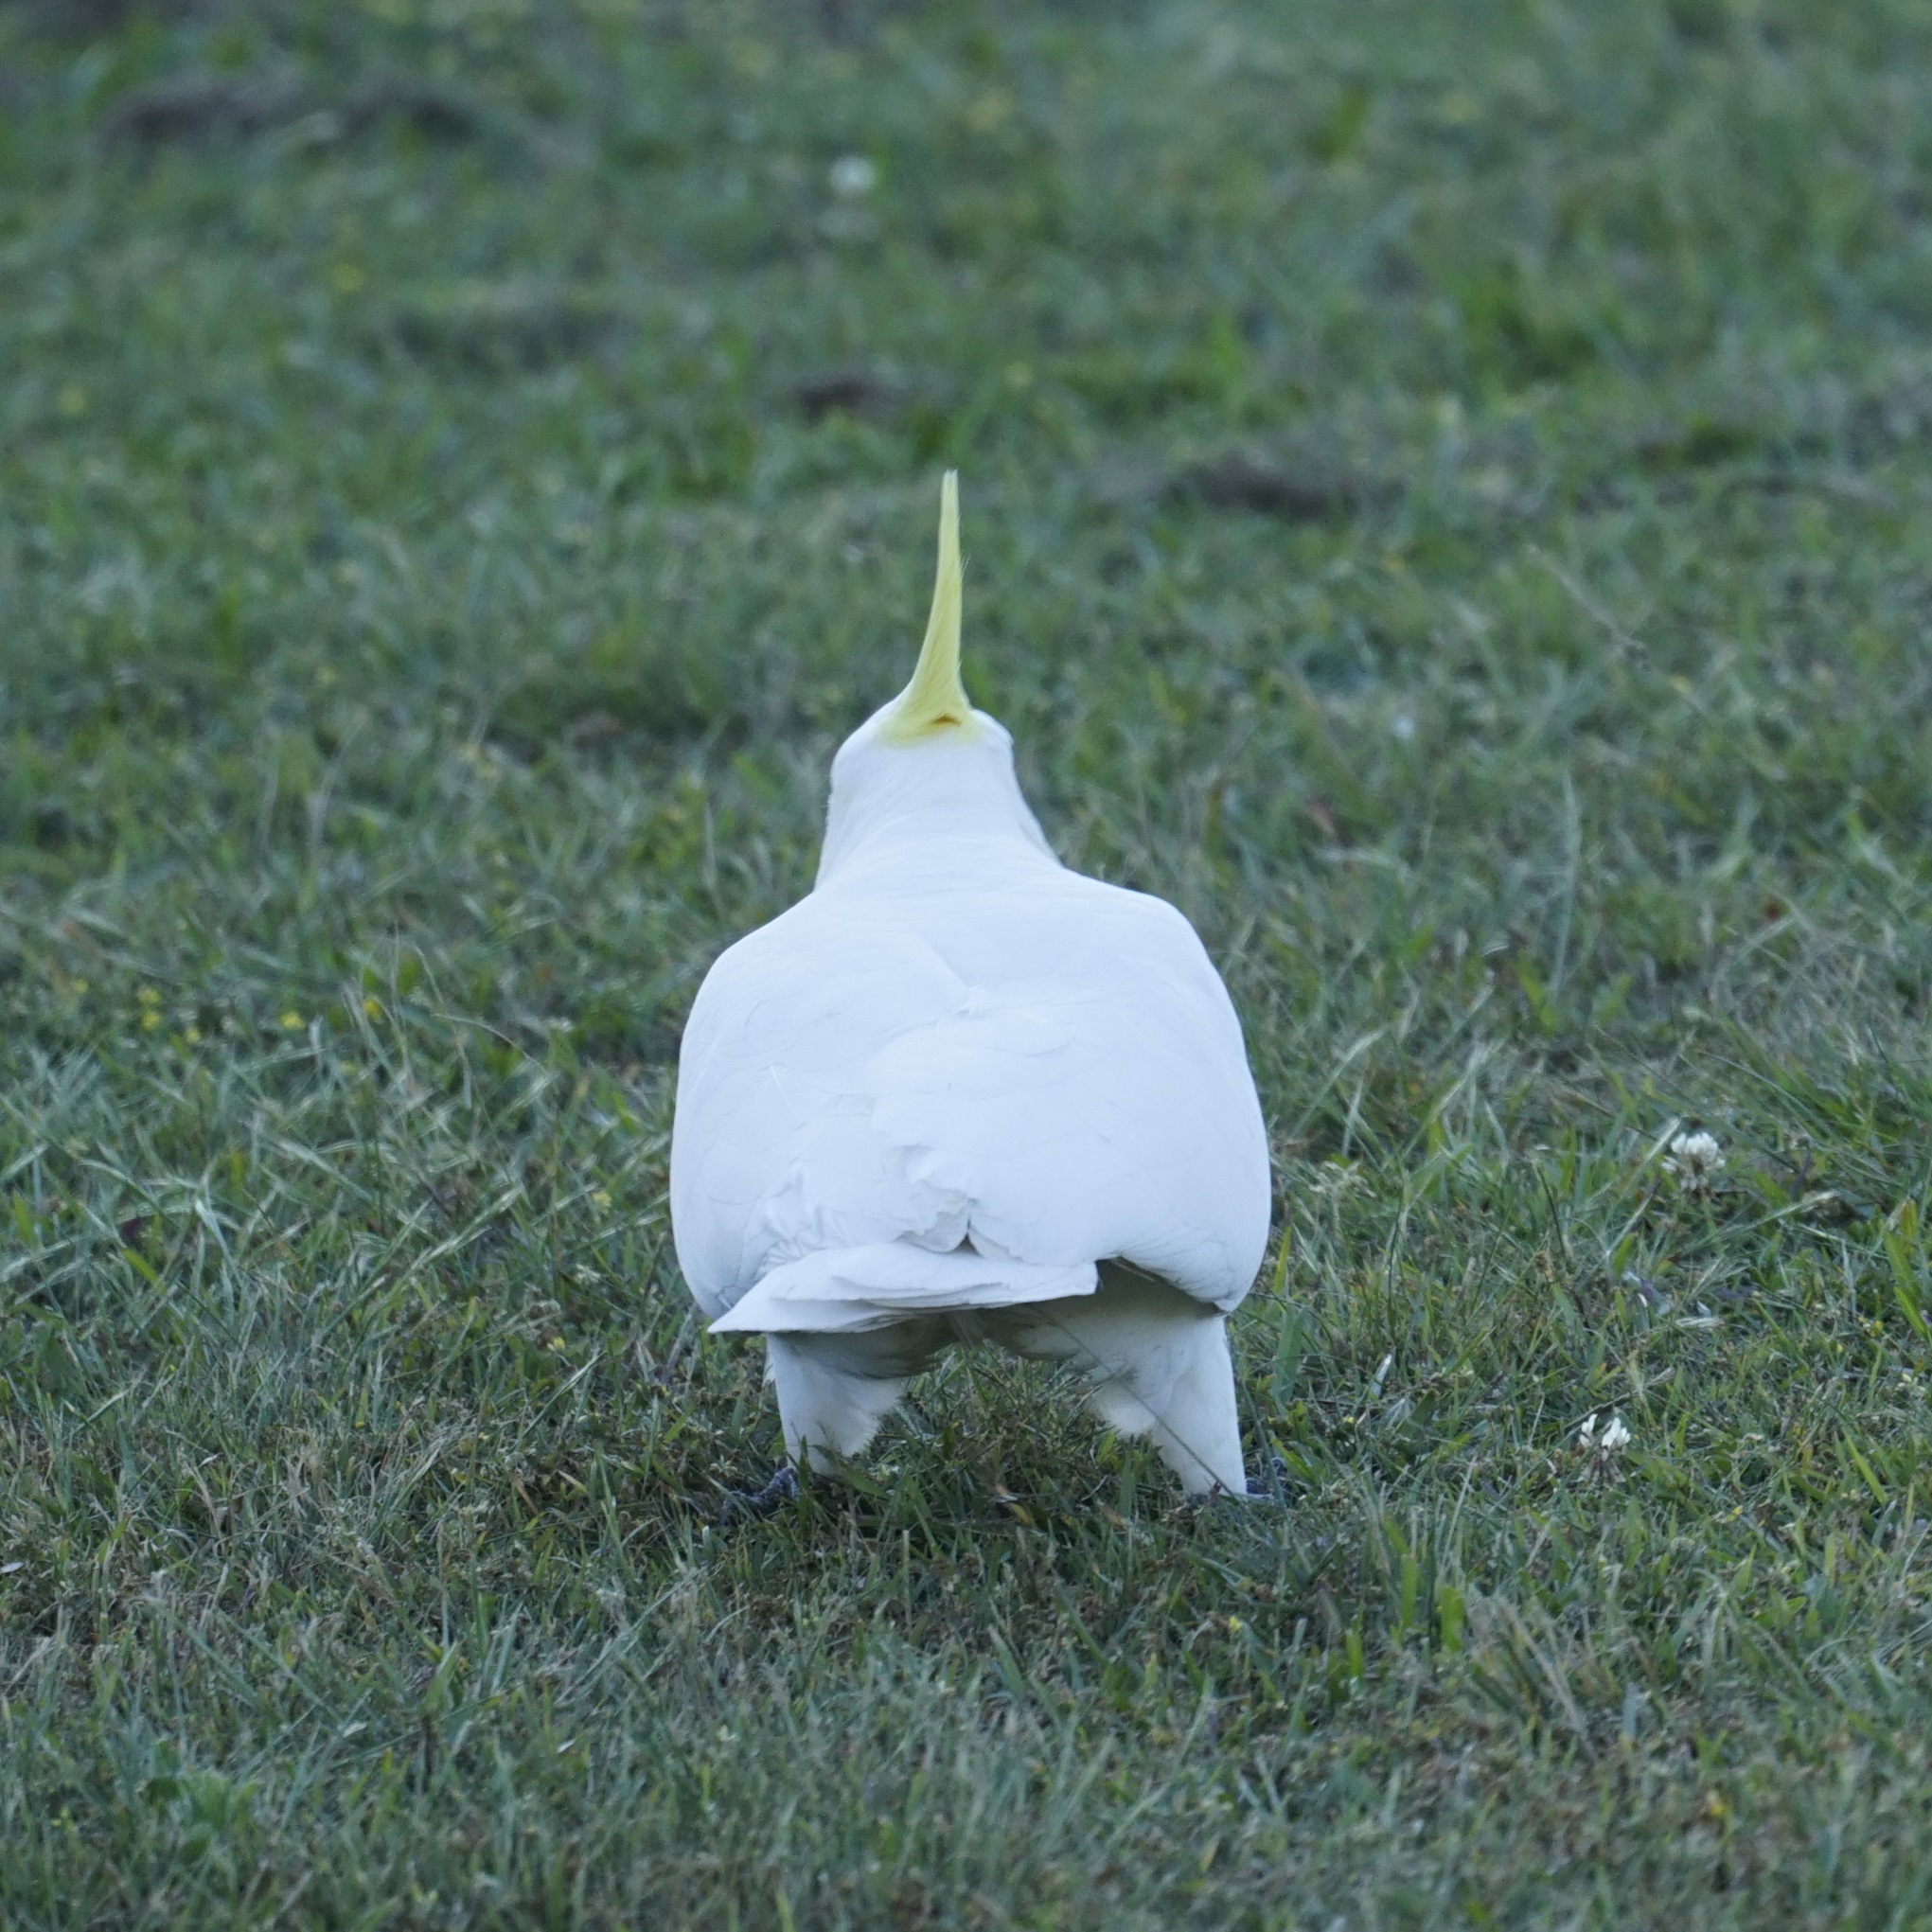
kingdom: Animalia
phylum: Chordata
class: Aves
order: Psittaciformes
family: Psittacidae
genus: Cacatua
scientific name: Cacatua galerita
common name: Sulphur-crested cockatoo
